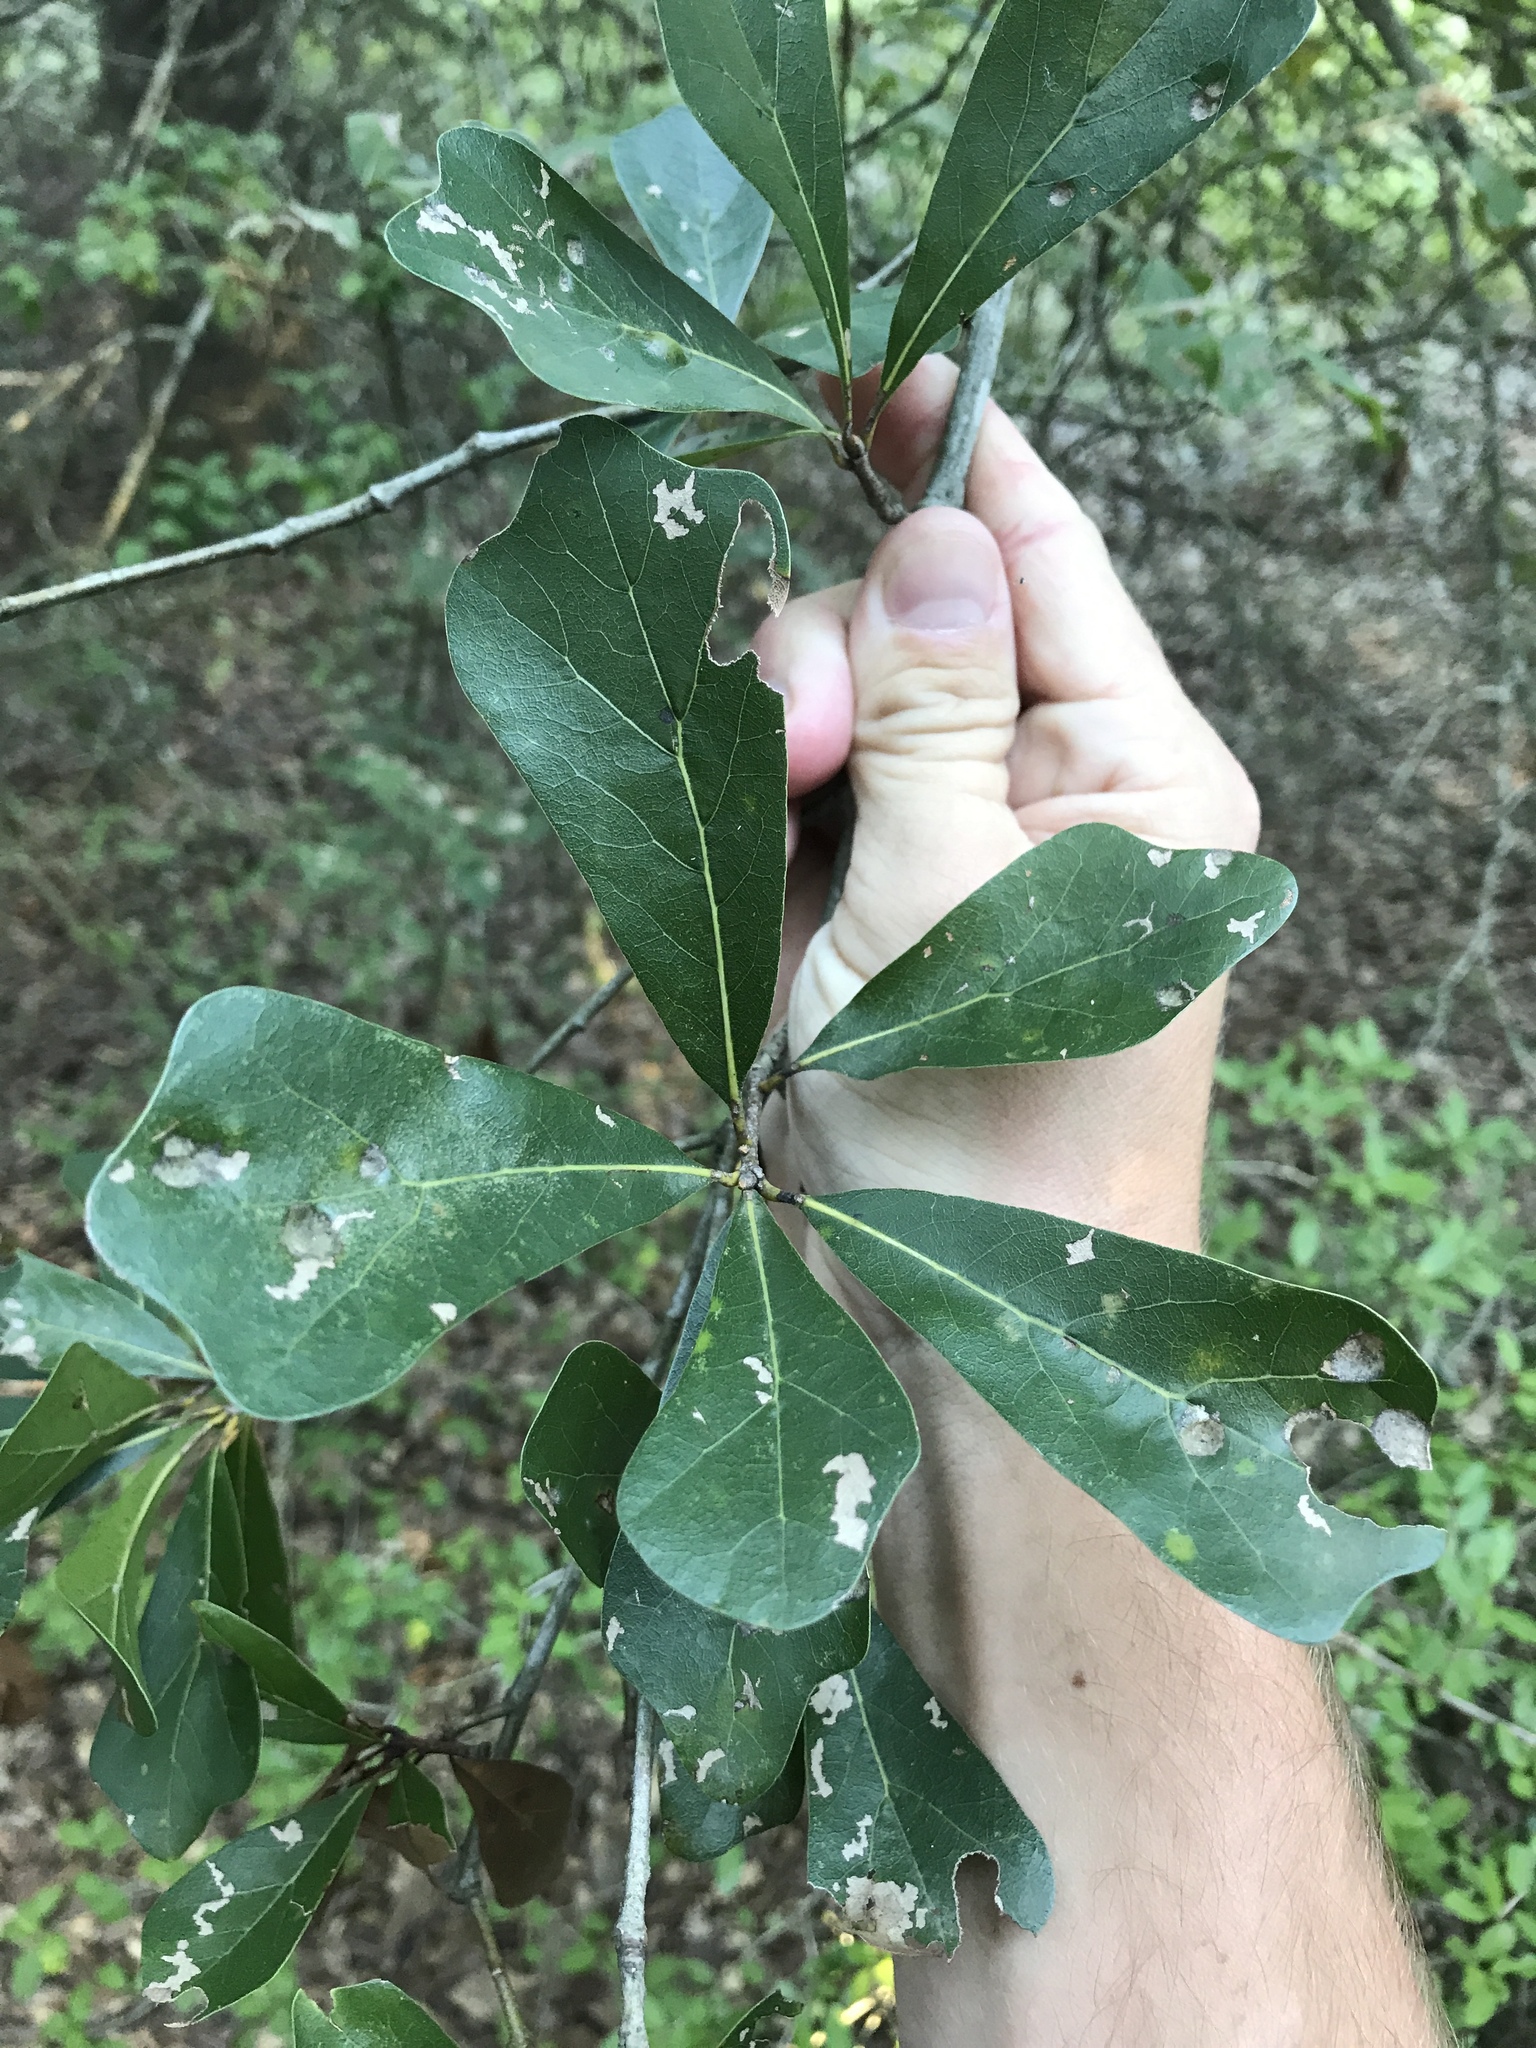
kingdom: Plantae
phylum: Tracheophyta
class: Magnoliopsida
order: Fagales
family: Fagaceae
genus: Quercus
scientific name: Quercus nigra
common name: Water oak
